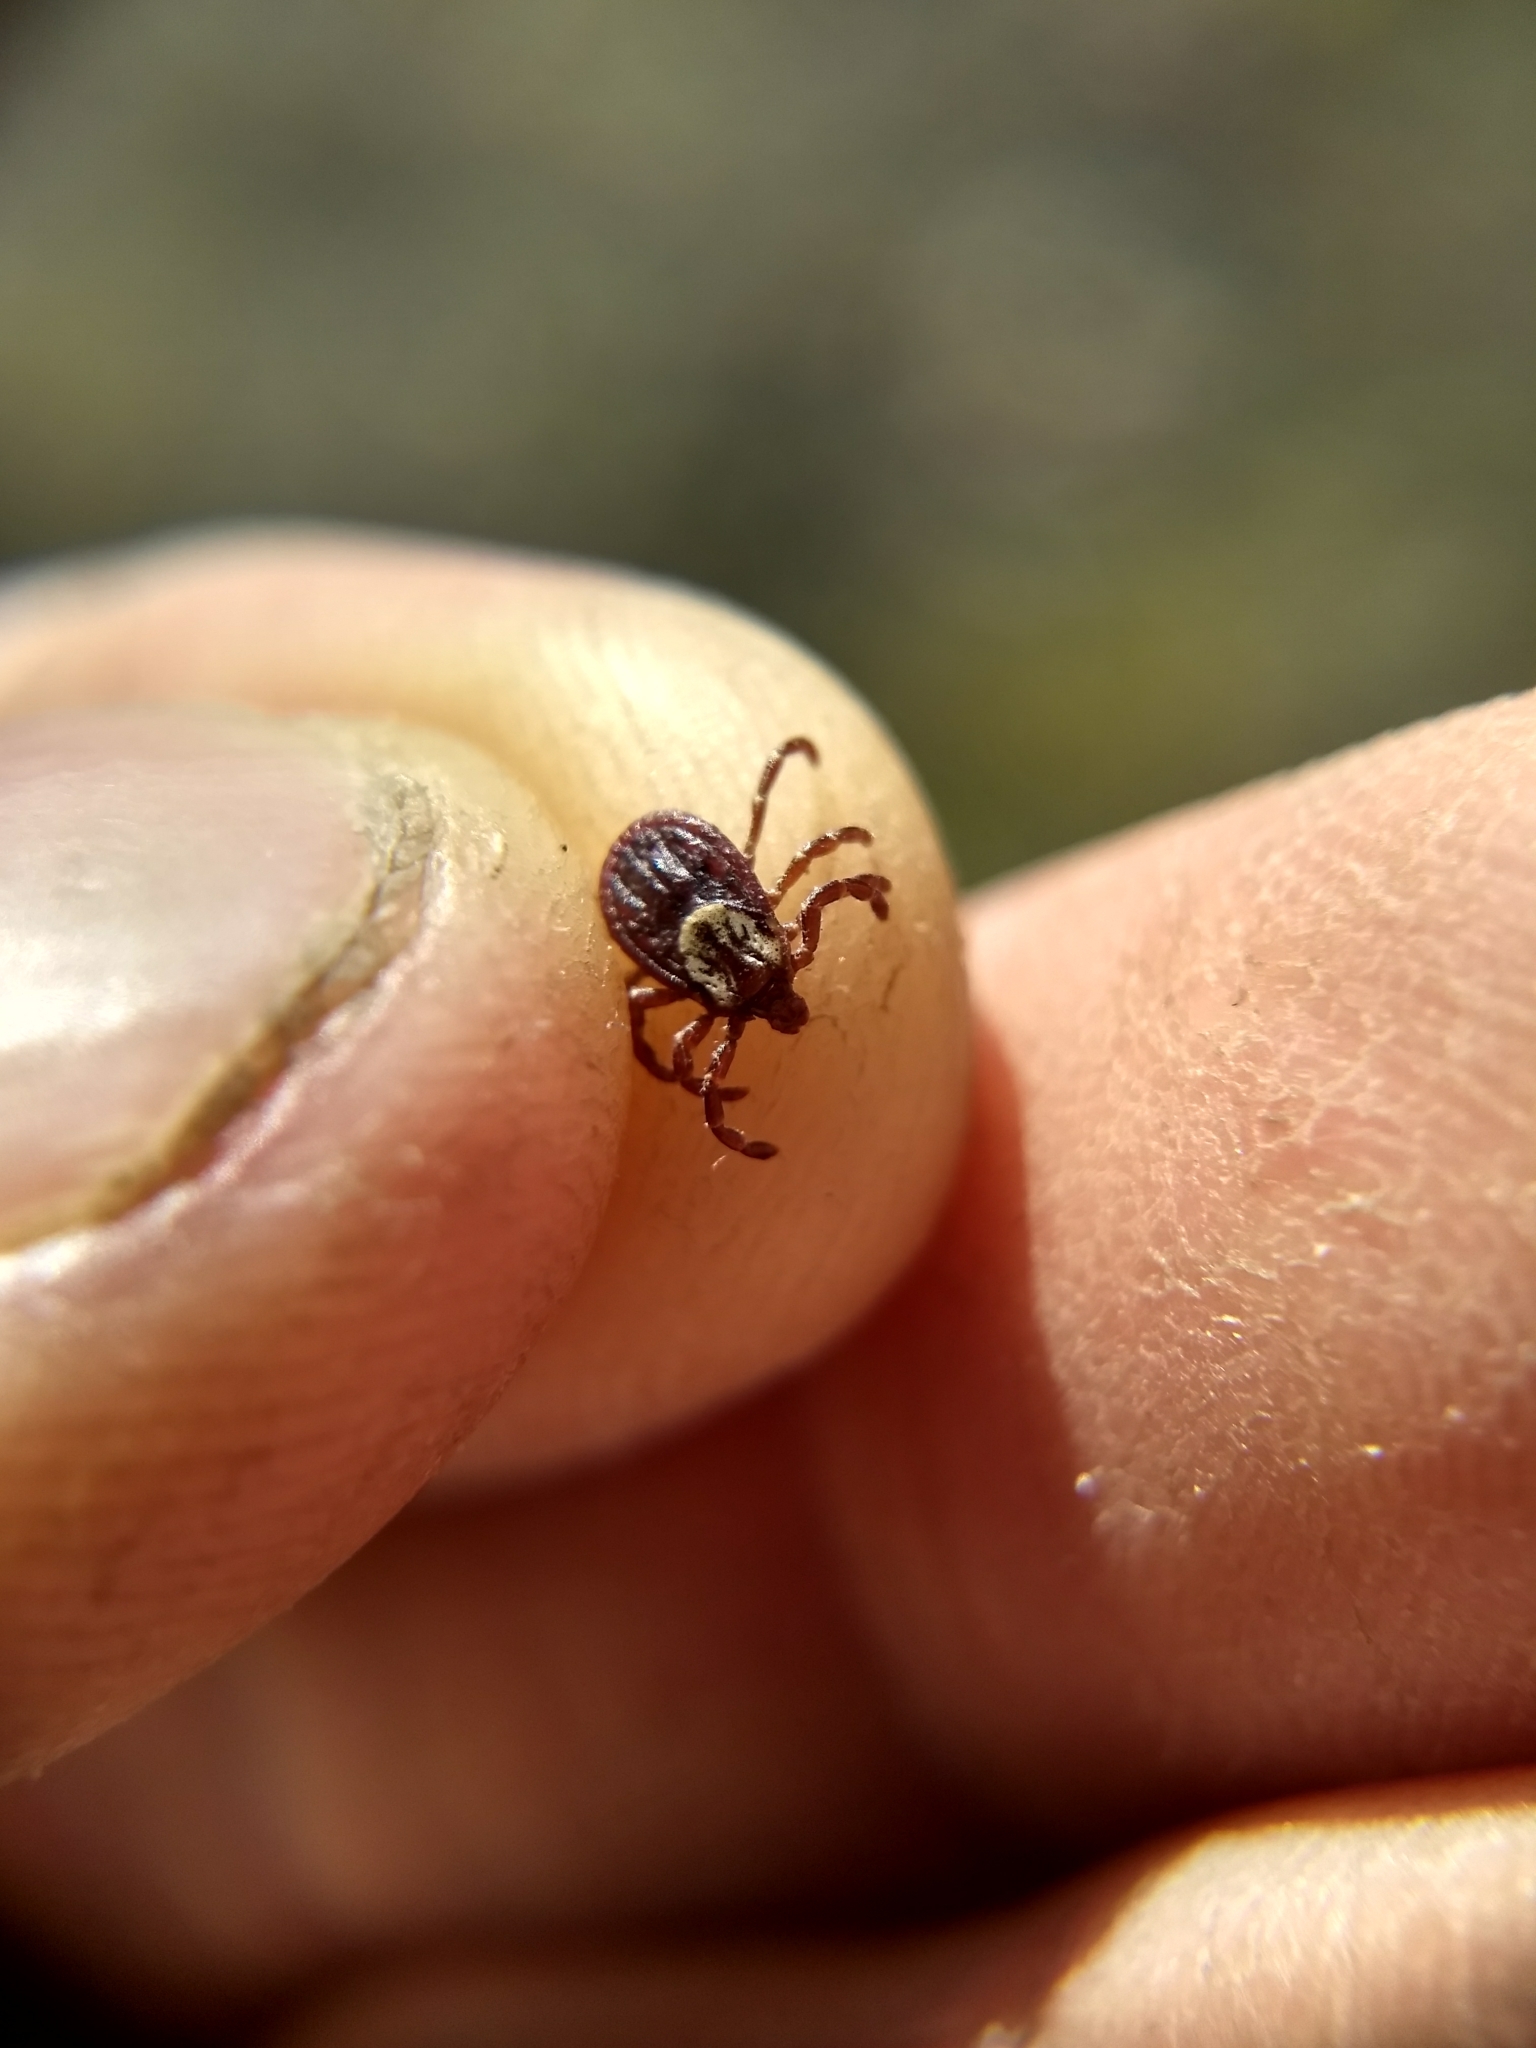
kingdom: Animalia
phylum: Arthropoda
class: Arachnida
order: Ixodida
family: Ixodidae
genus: Dermacentor
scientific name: Dermacentor variabilis
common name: American dog tick
